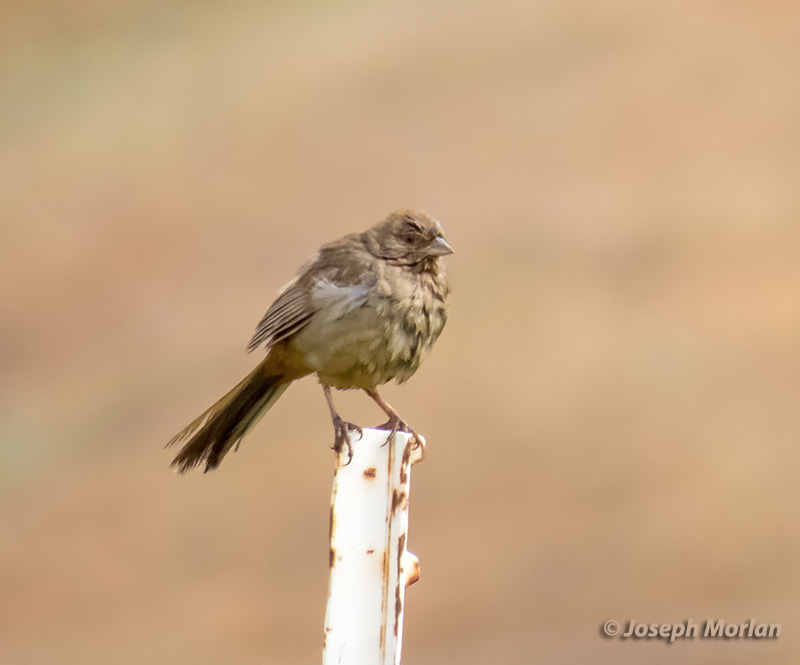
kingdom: Animalia
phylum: Chordata
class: Aves
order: Passeriformes
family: Passerellidae
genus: Melozone
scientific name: Melozone crissalis
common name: California towhee
